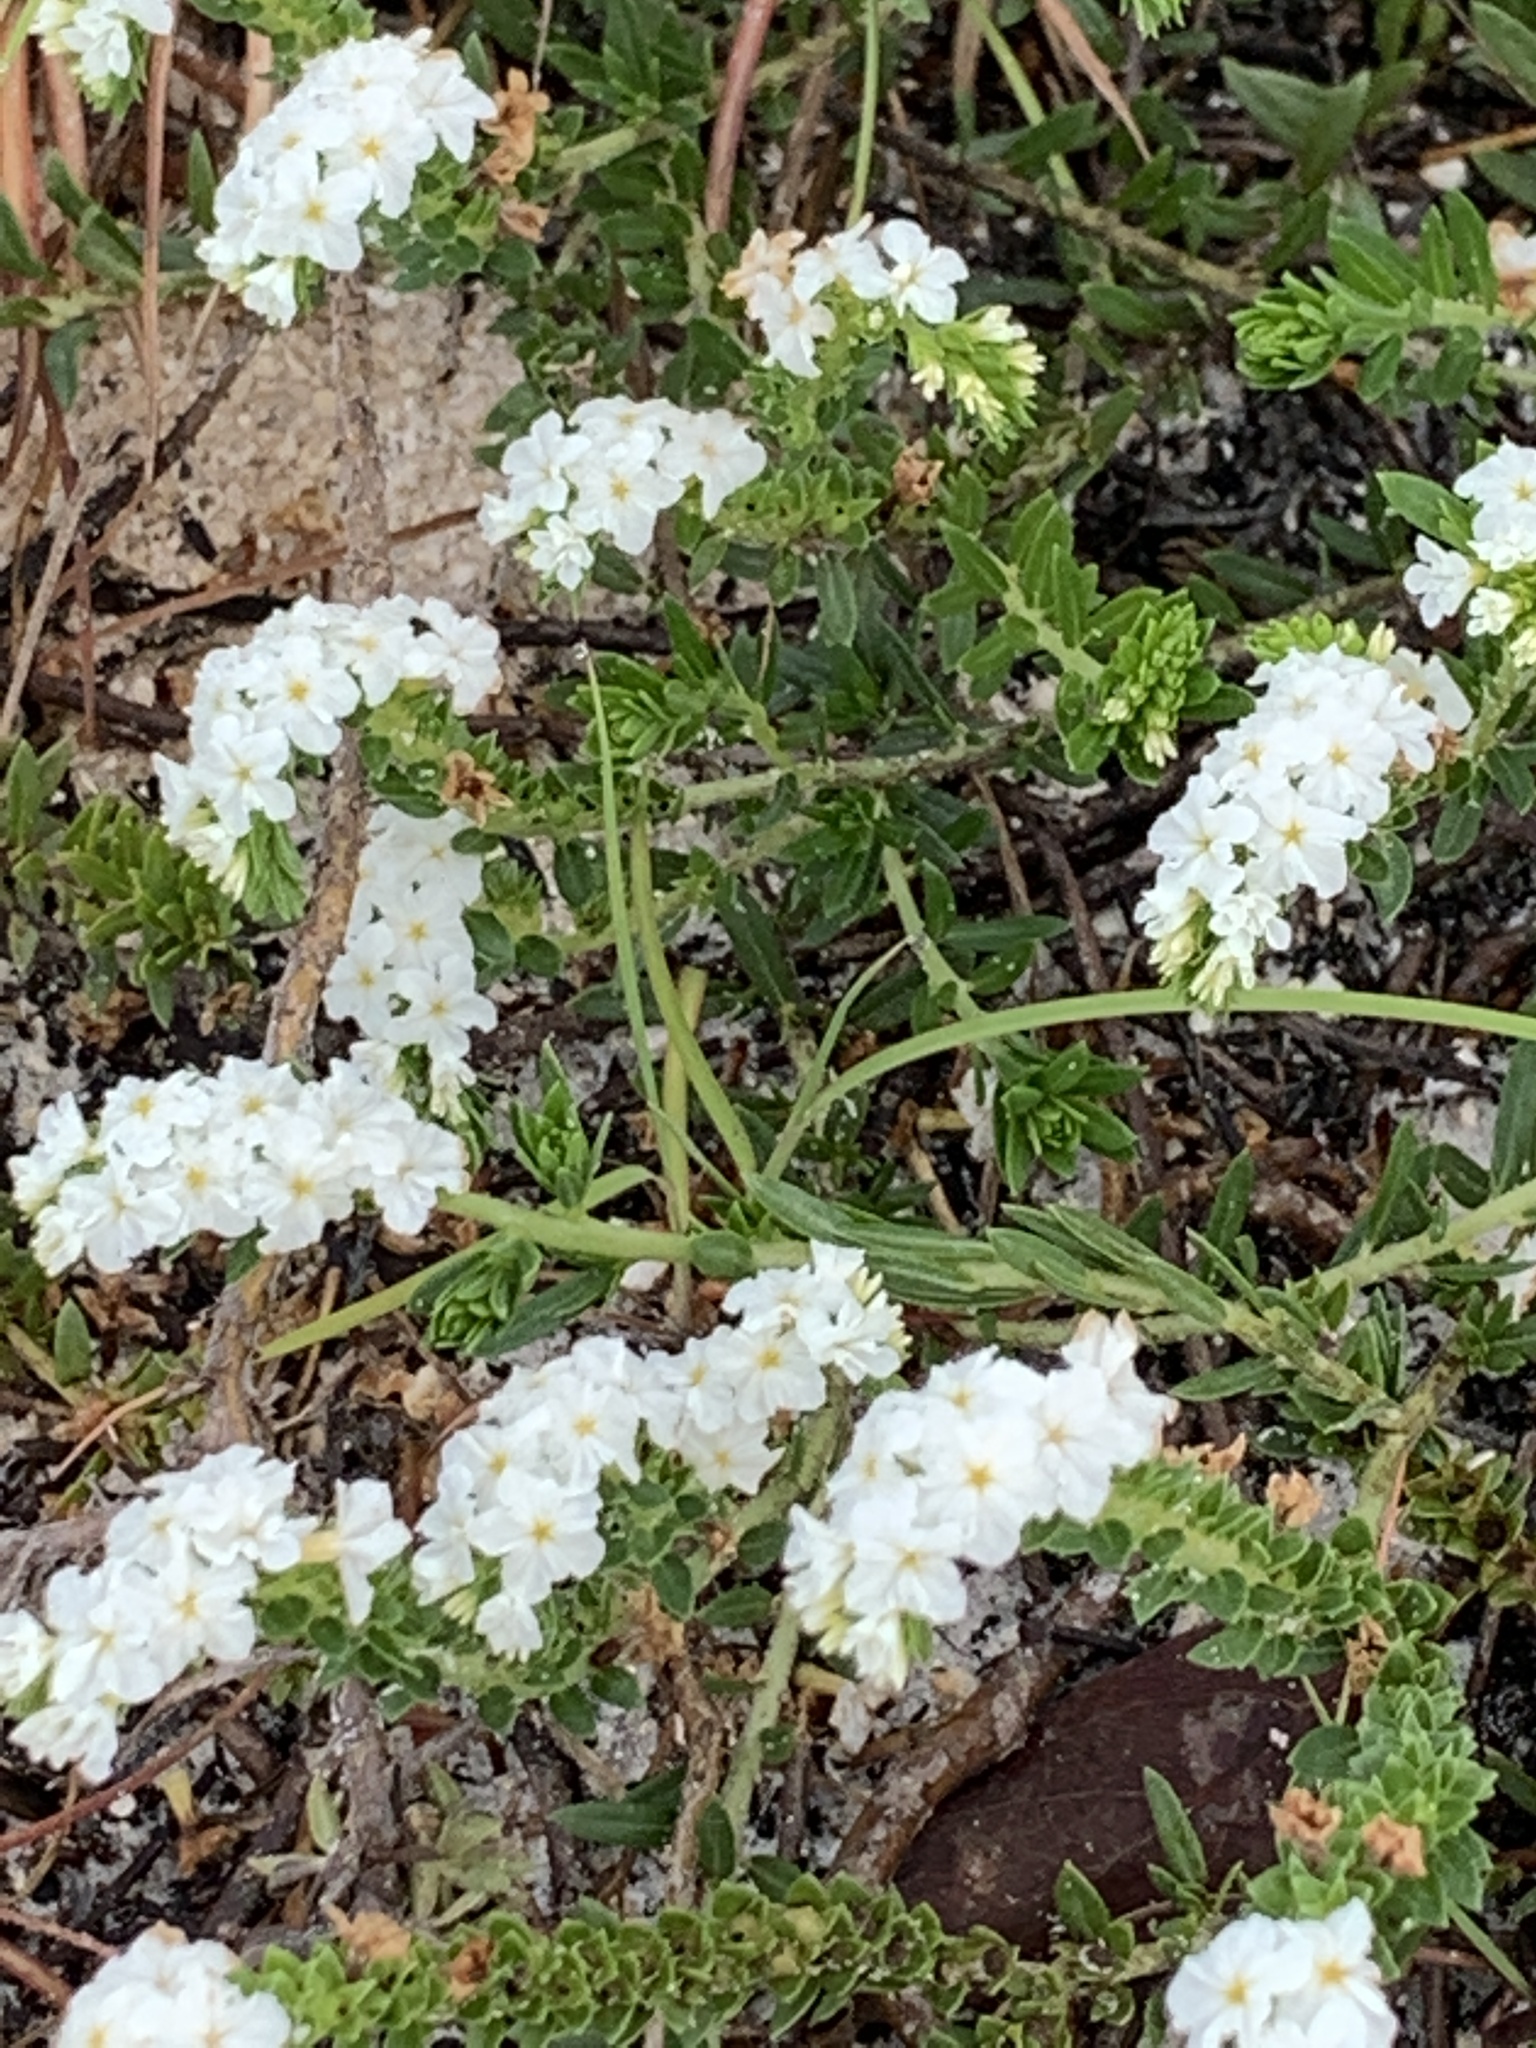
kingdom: Plantae
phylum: Tracheophyta
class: Magnoliopsida
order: Boraginales
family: Heliotropiaceae
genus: Euploca
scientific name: Euploca polyphylla
